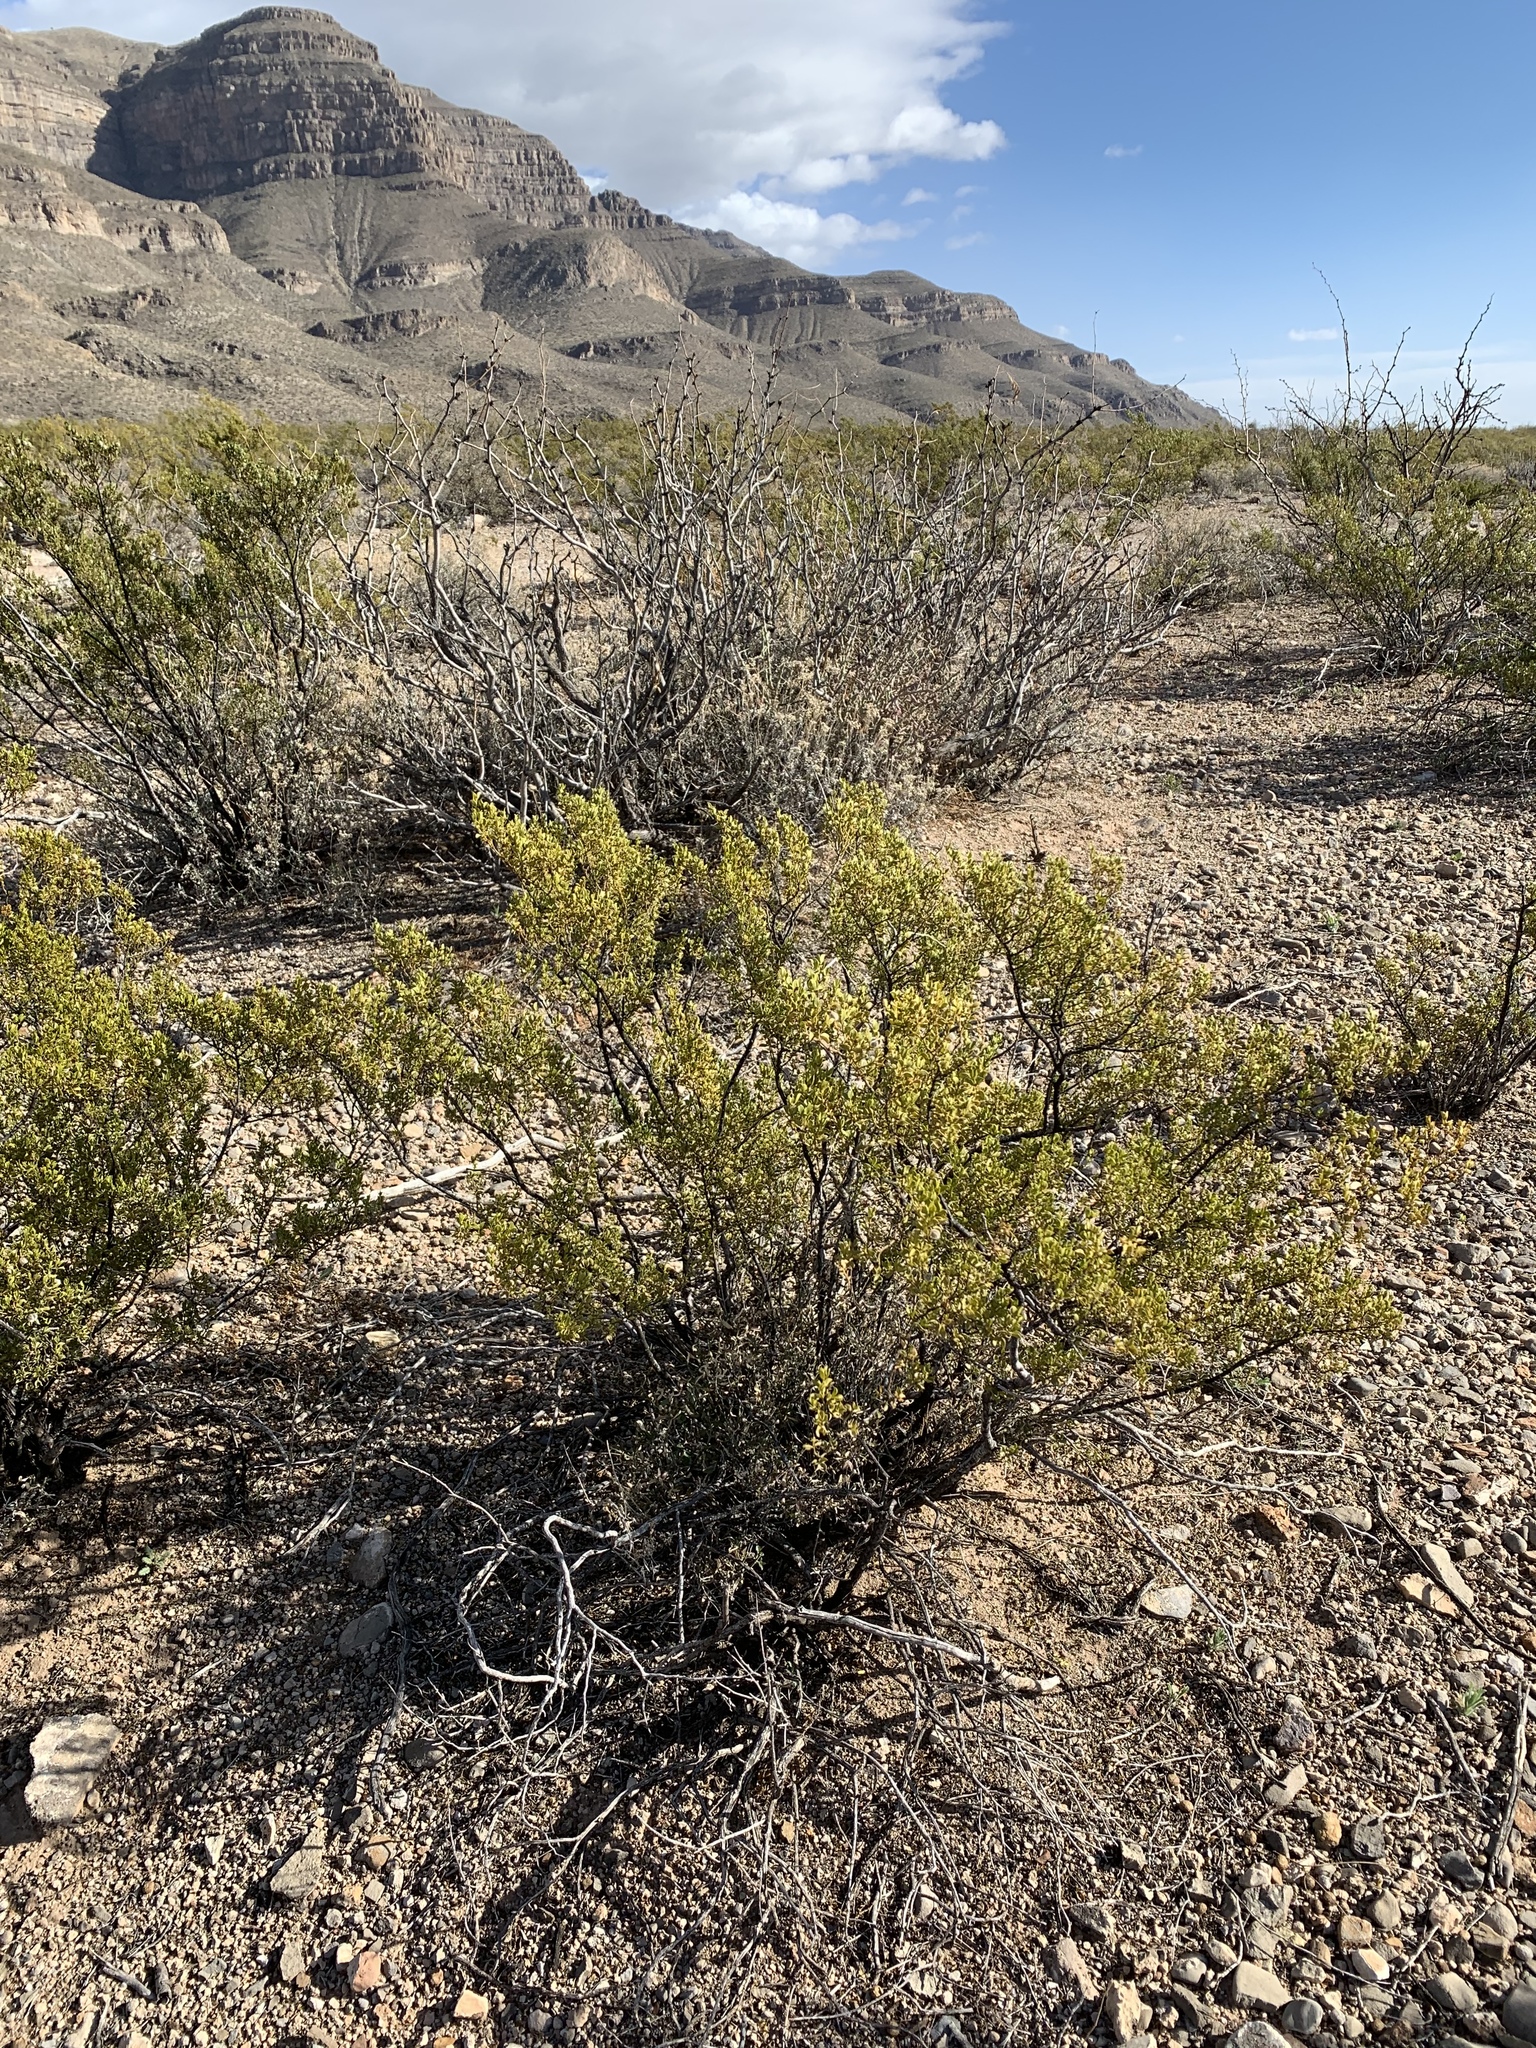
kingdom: Plantae
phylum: Tracheophyta
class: Magnoliopsida
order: Zygophyllales
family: Zygophyllaceae
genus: Larrea
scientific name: Larrea tridentata
